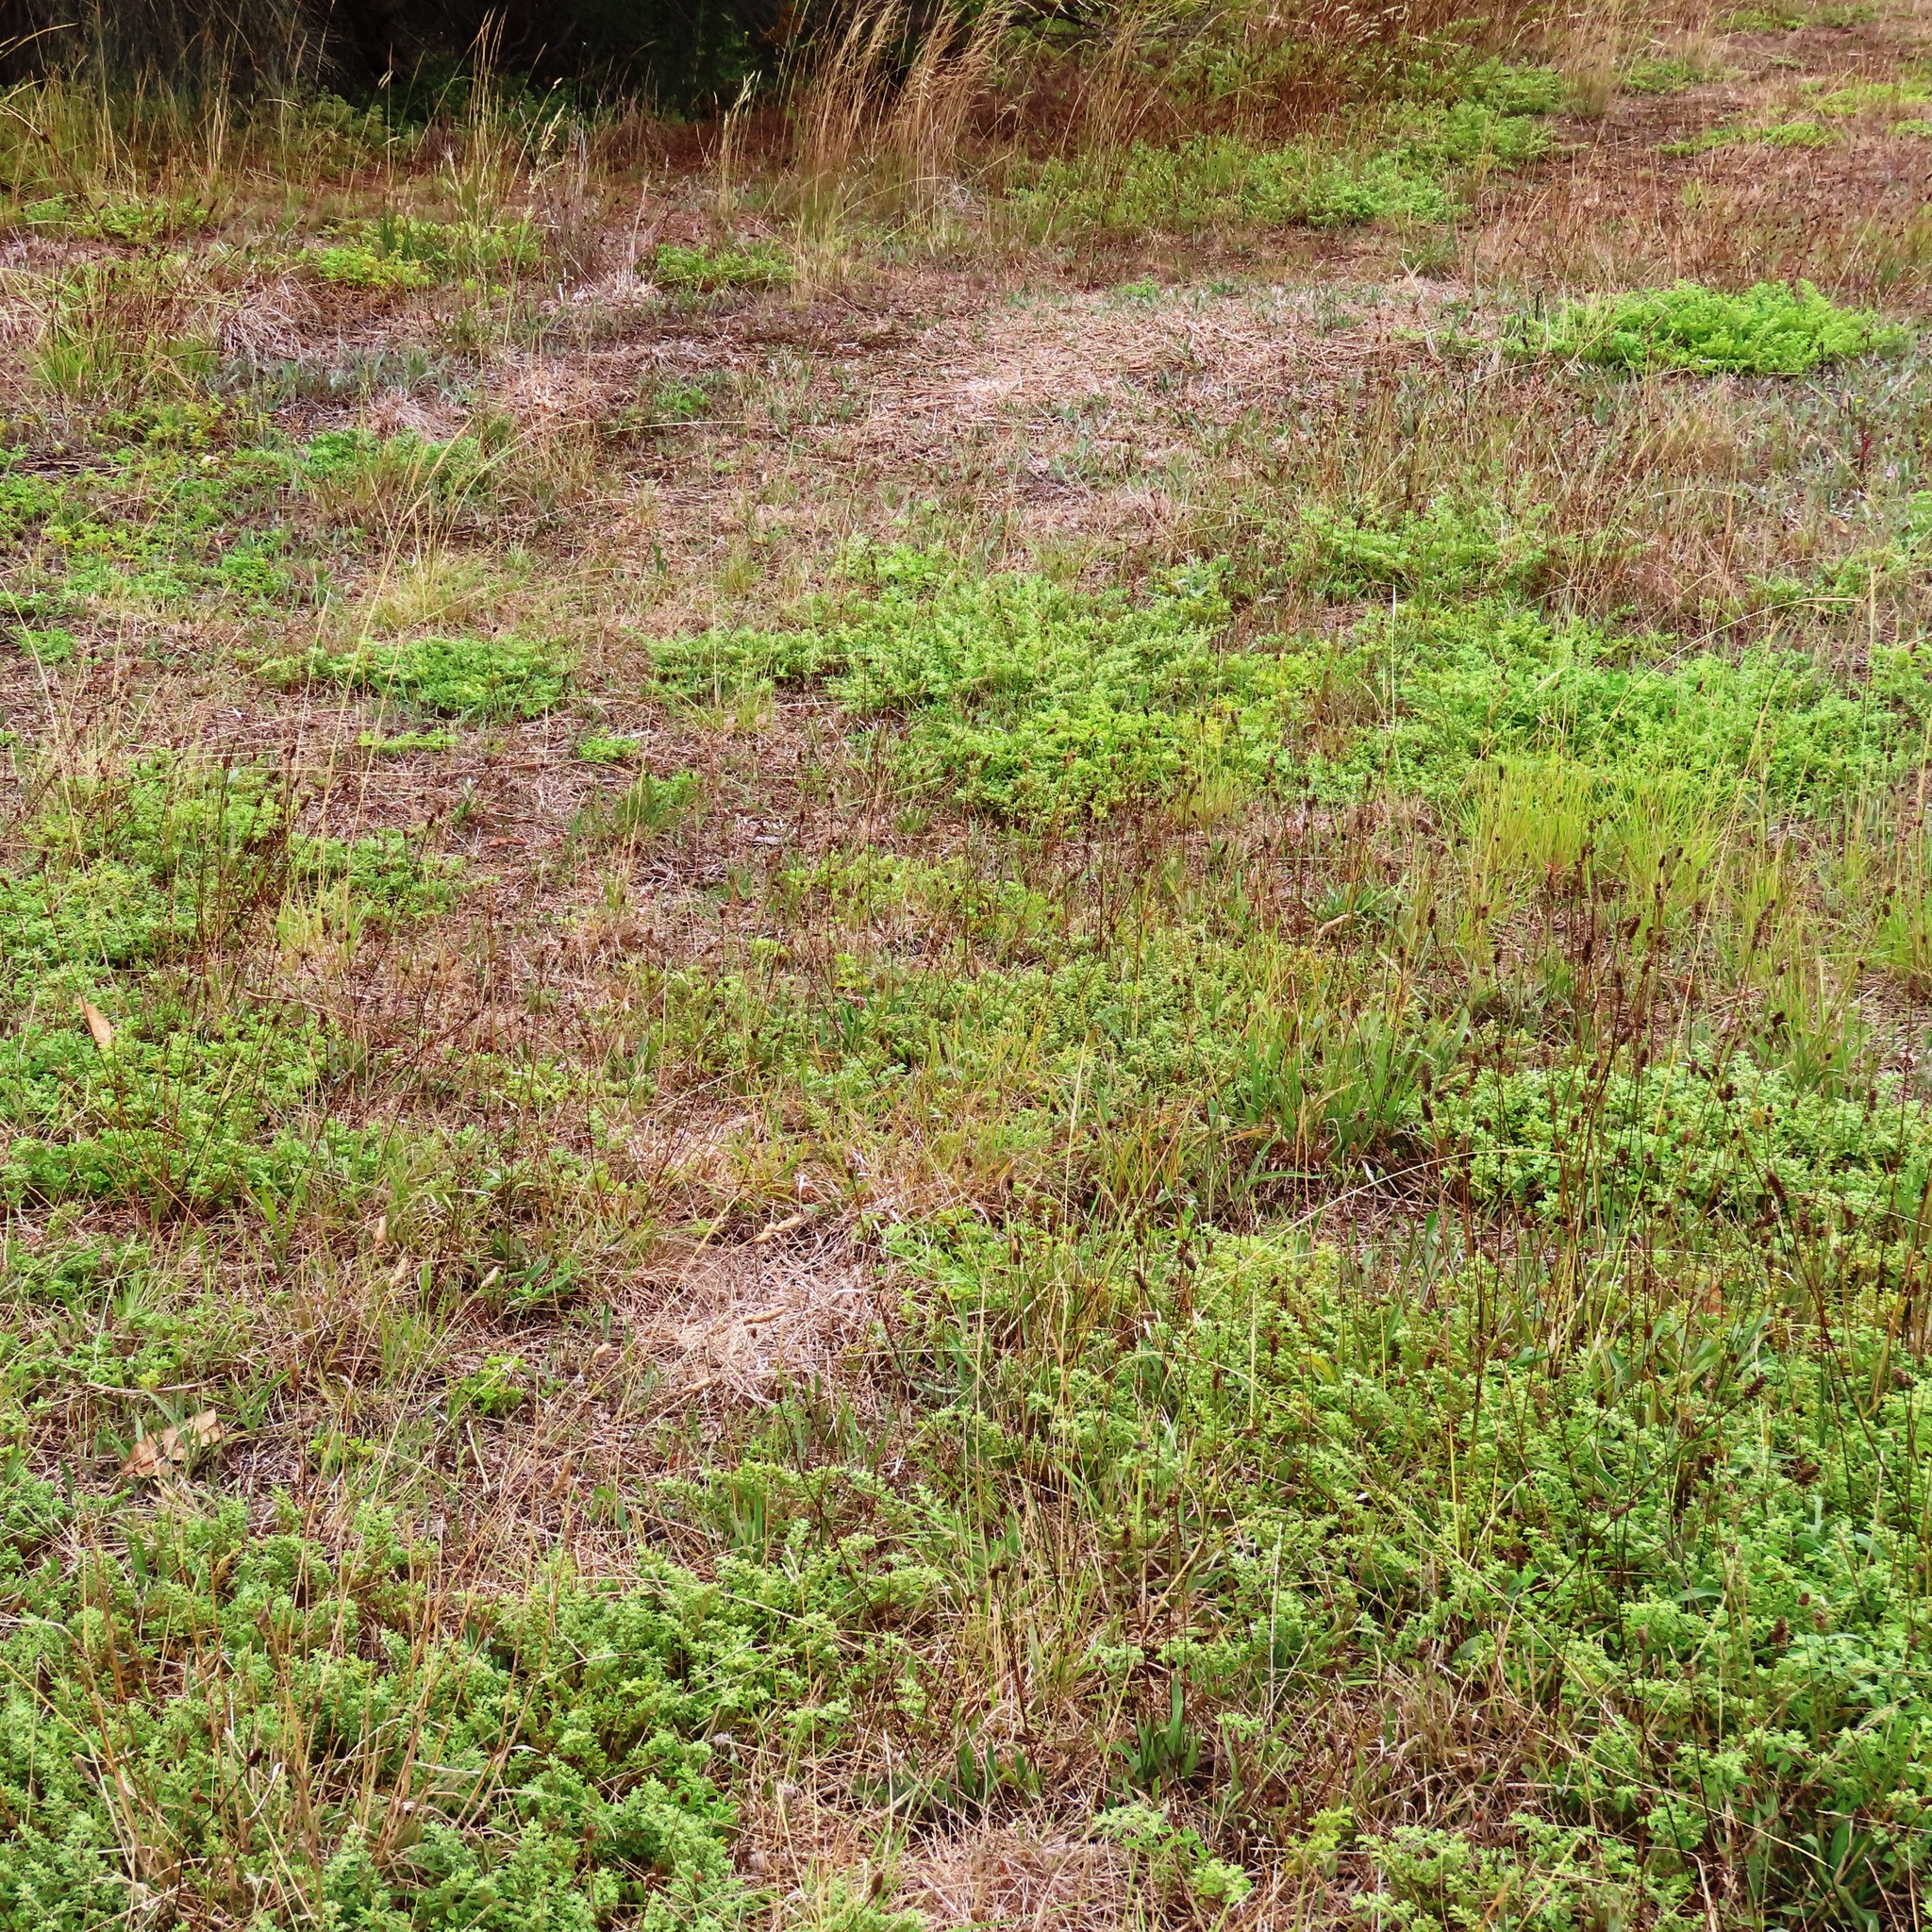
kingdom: Plantae
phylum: Tracheophyta
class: Magnoliopsida
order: Caryophyllales
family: Aizoaceae
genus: Aizoon
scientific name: Aizoon pubescens
